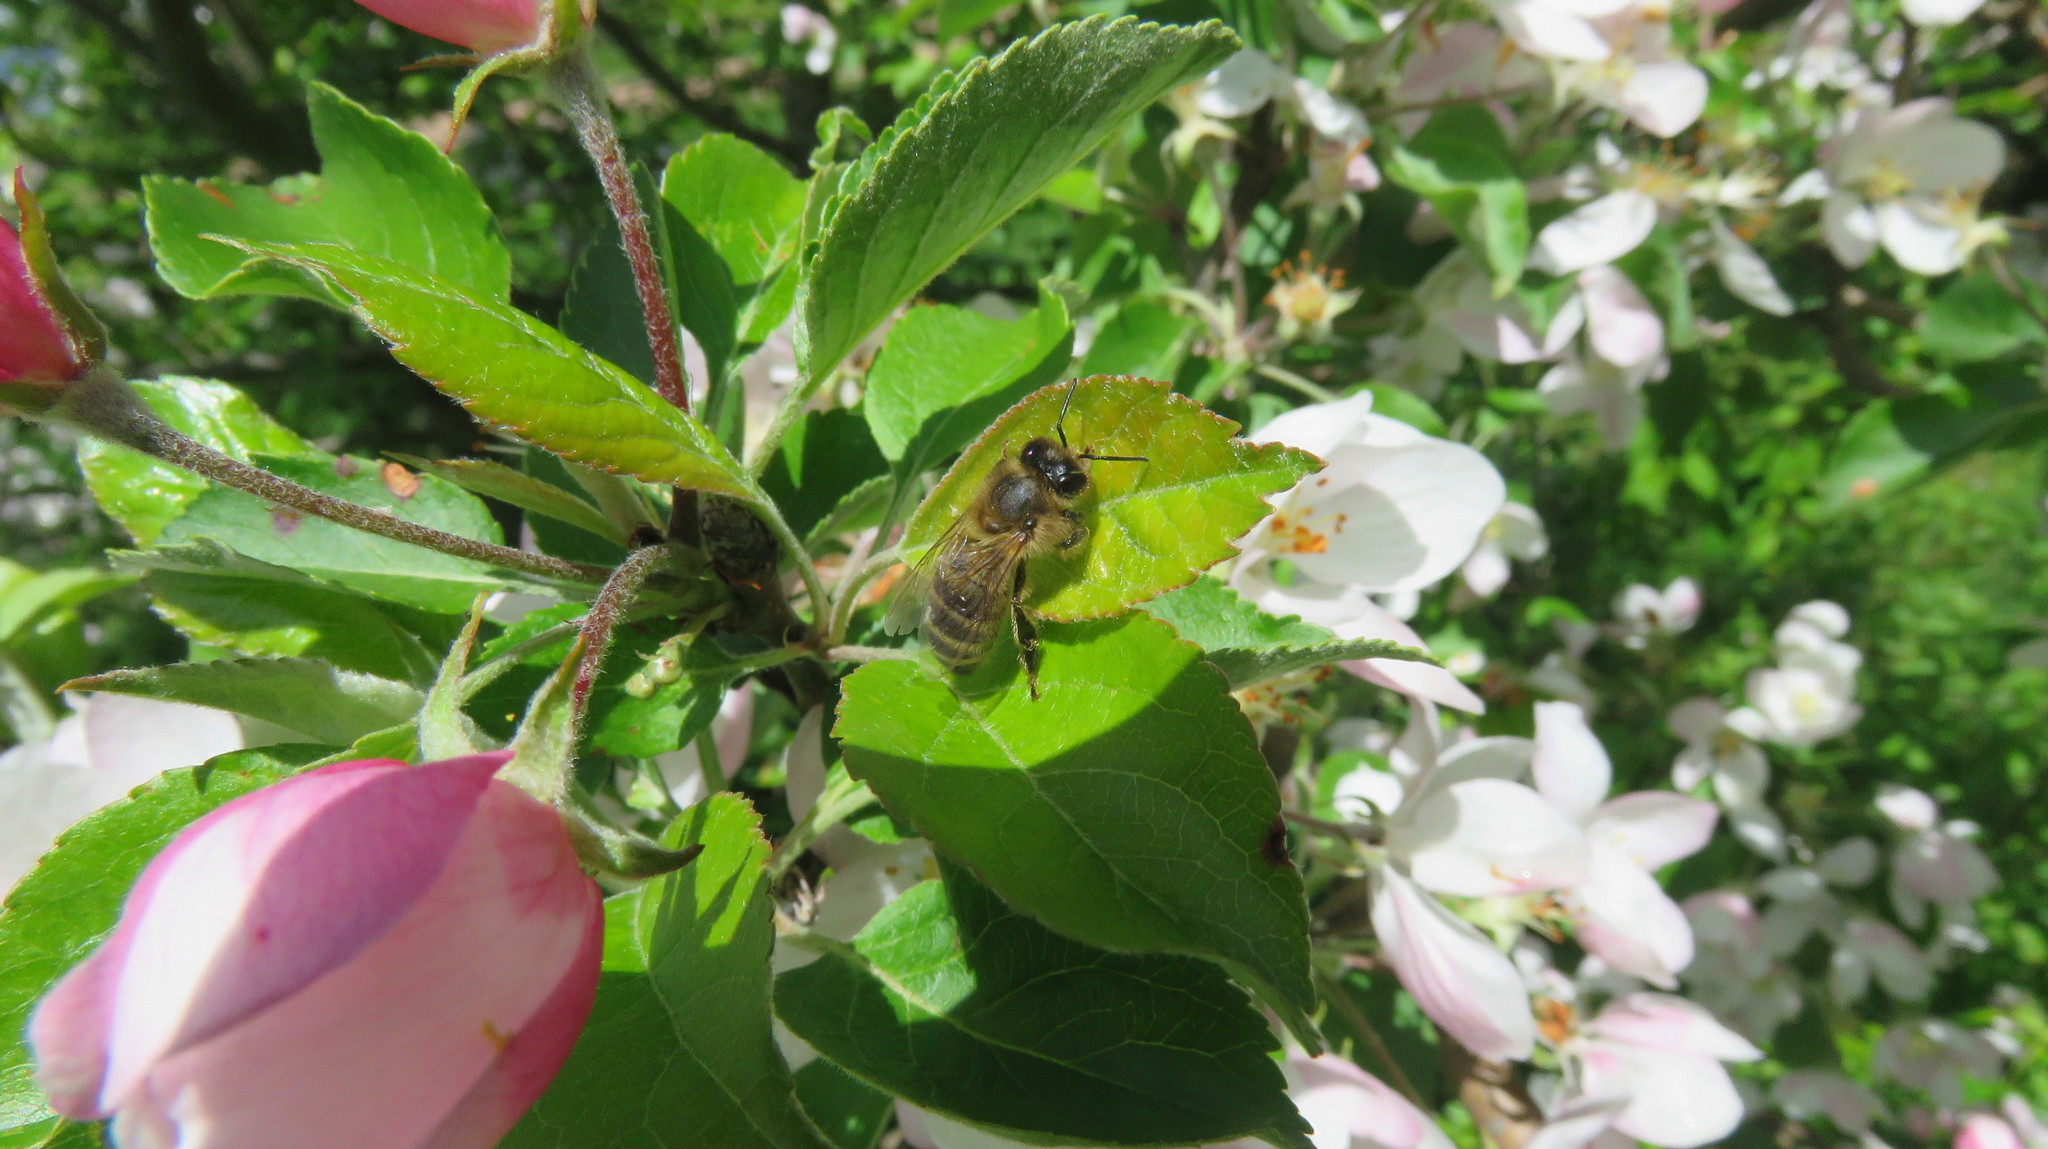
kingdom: Animalia
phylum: Arthropoda
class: Insecta
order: Hymenoptera
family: Apidae
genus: Apis
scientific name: Apis mellifera
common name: Honey bee
